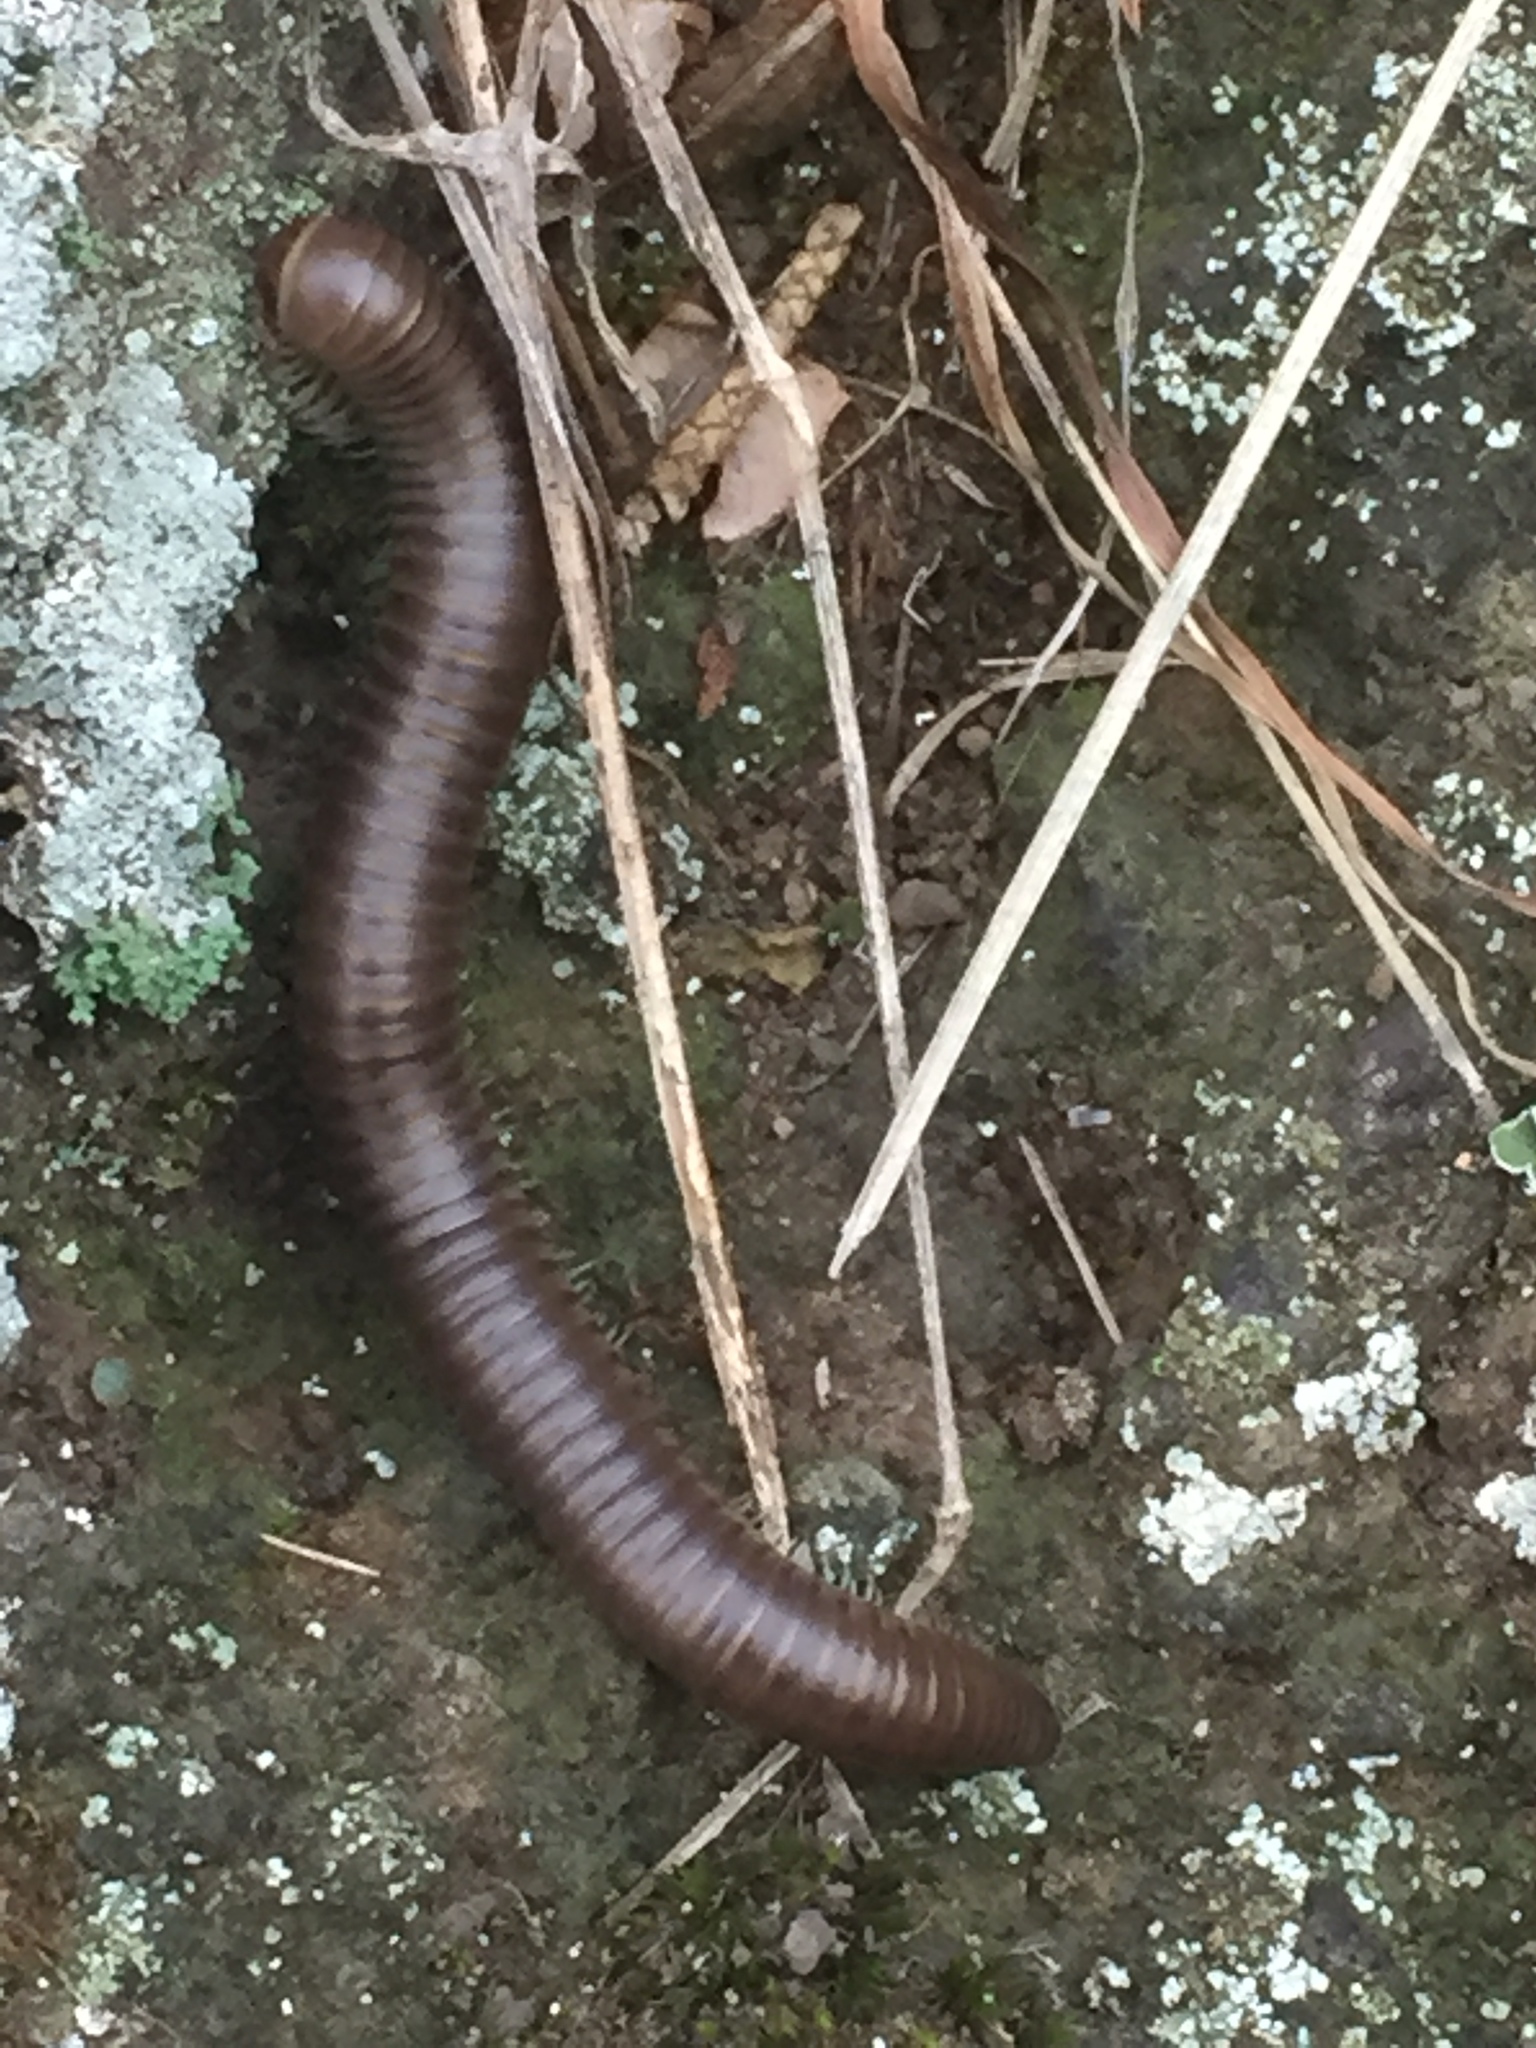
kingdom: Animalia
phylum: Arthropoda
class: Diplopoda
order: Julida
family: Julidae
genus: Pachyiulus
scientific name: Pachyiulus flavipes
